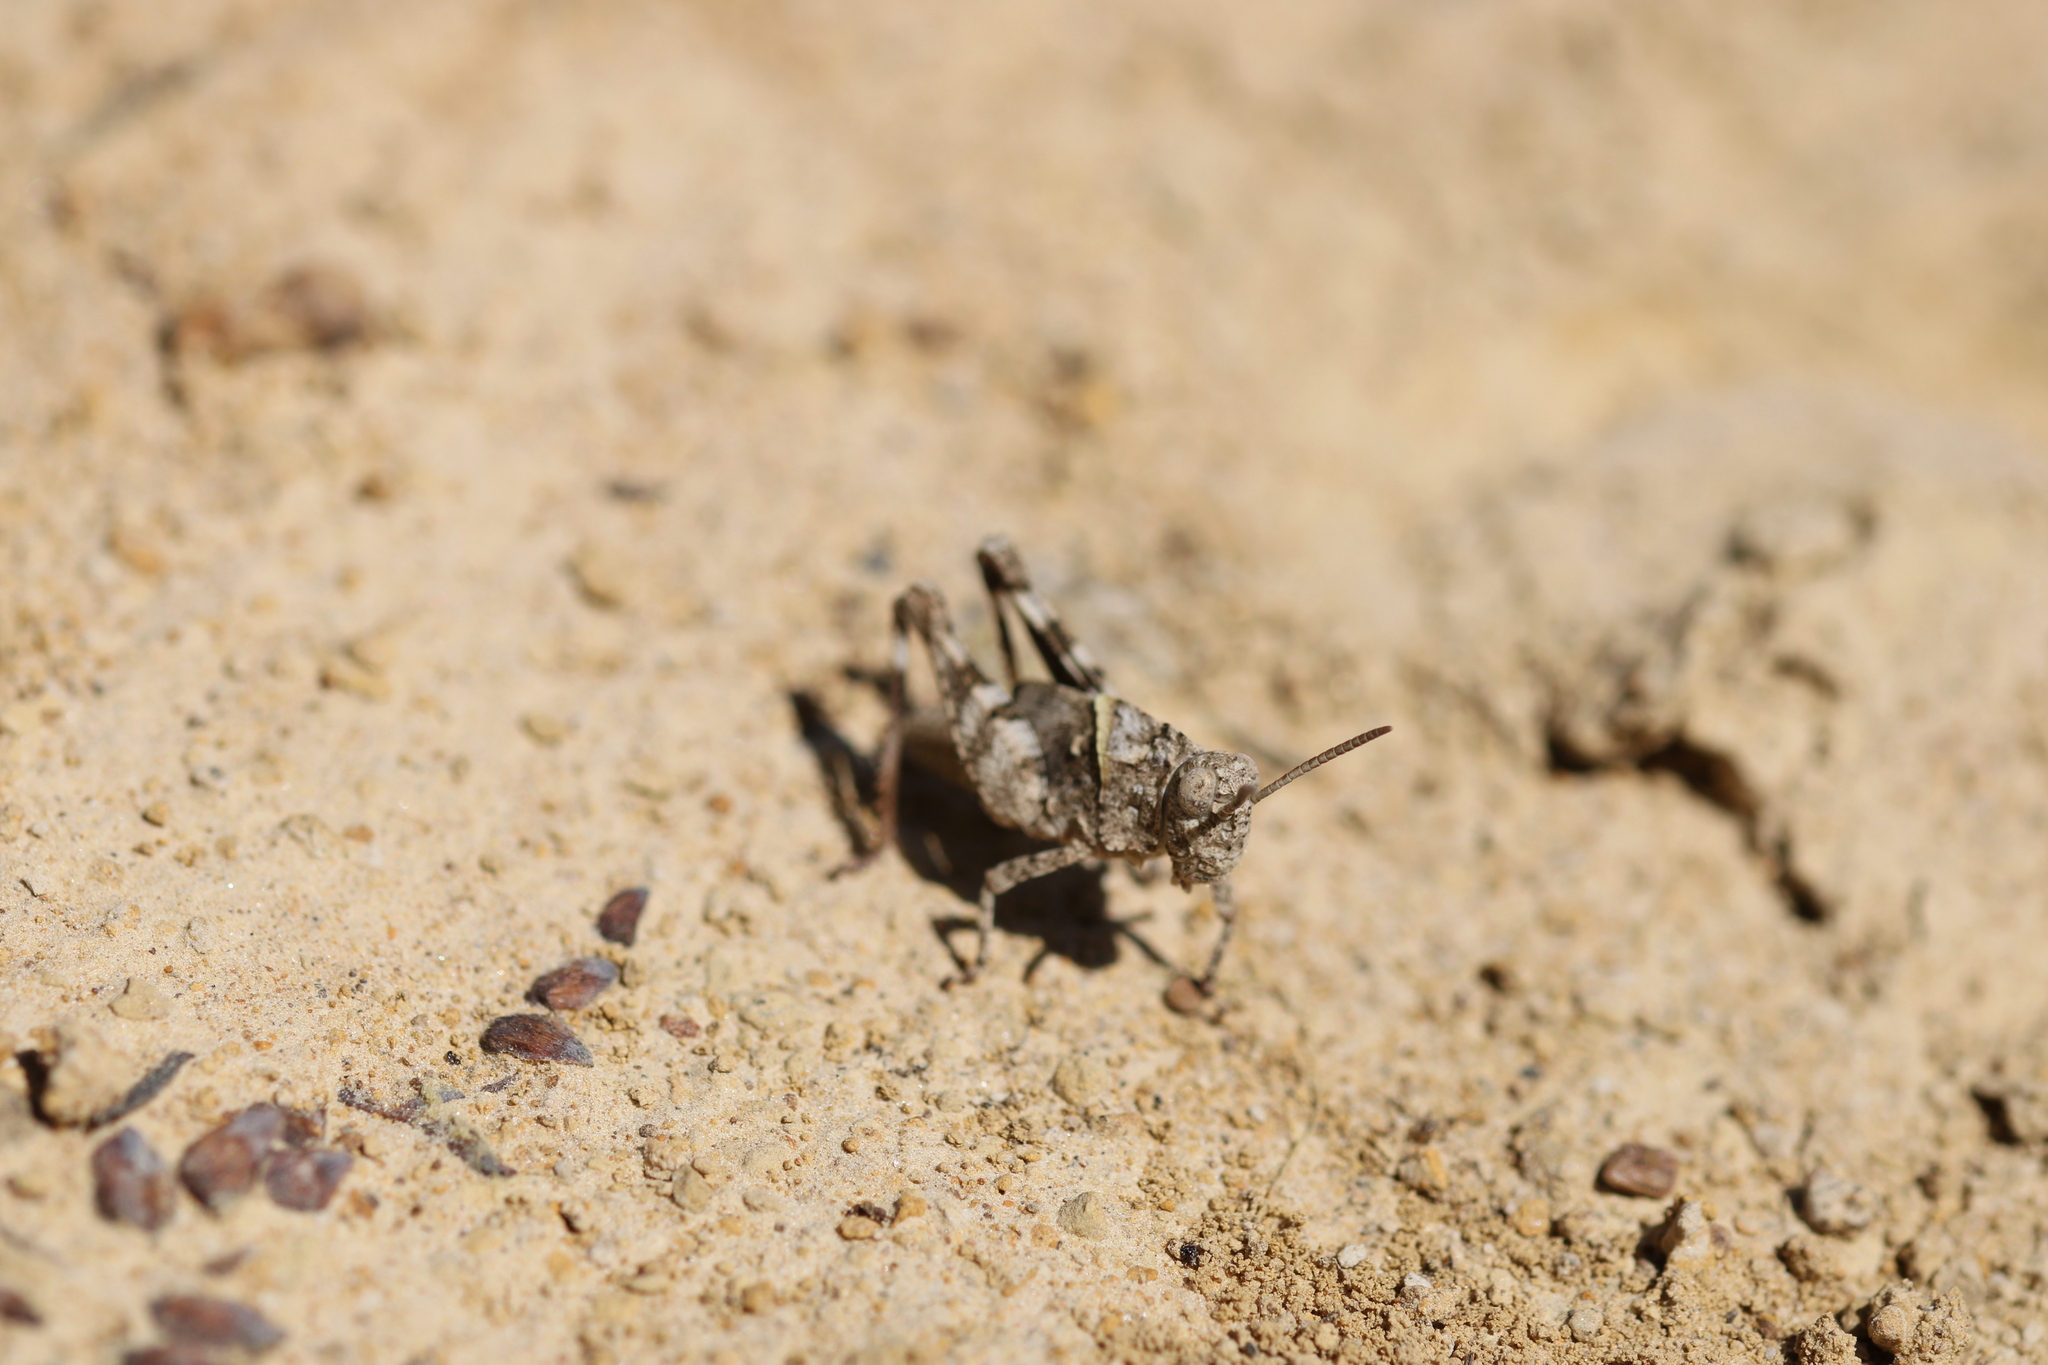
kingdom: Animalia
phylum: Arthropoda
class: Insecta
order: Orthoptera
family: Acrididae
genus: Oedipoda
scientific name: Oedipoda caerulescens
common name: Blue-winged grasshopper
